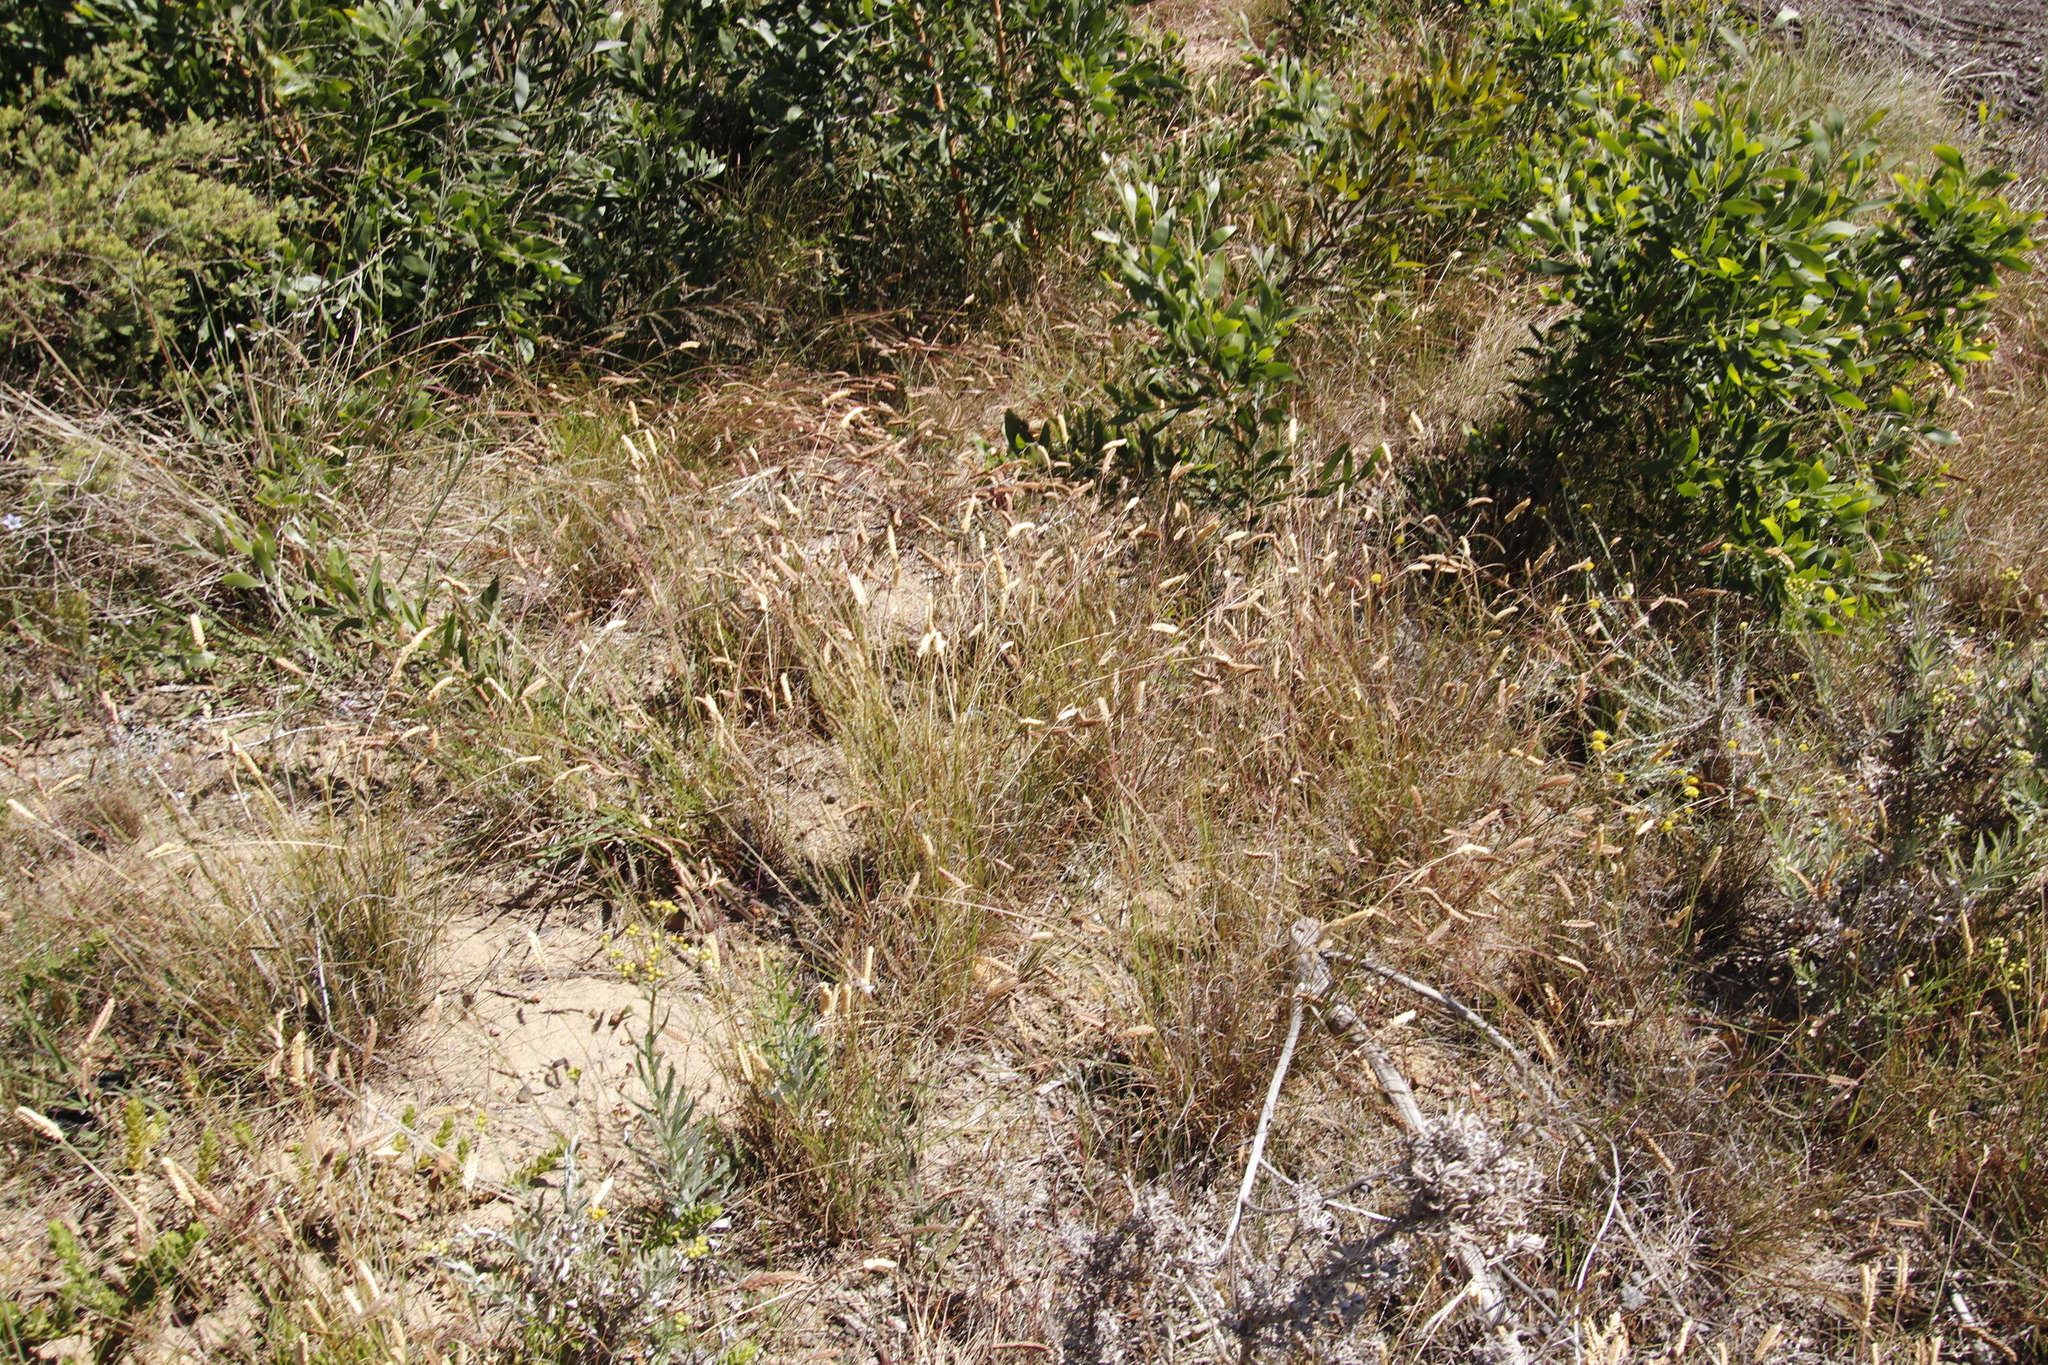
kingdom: Plantae
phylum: Tracheophyta
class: Liliopsida
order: Poales
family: Poaceae
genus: Tribolium
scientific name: Tribolium uniolae
